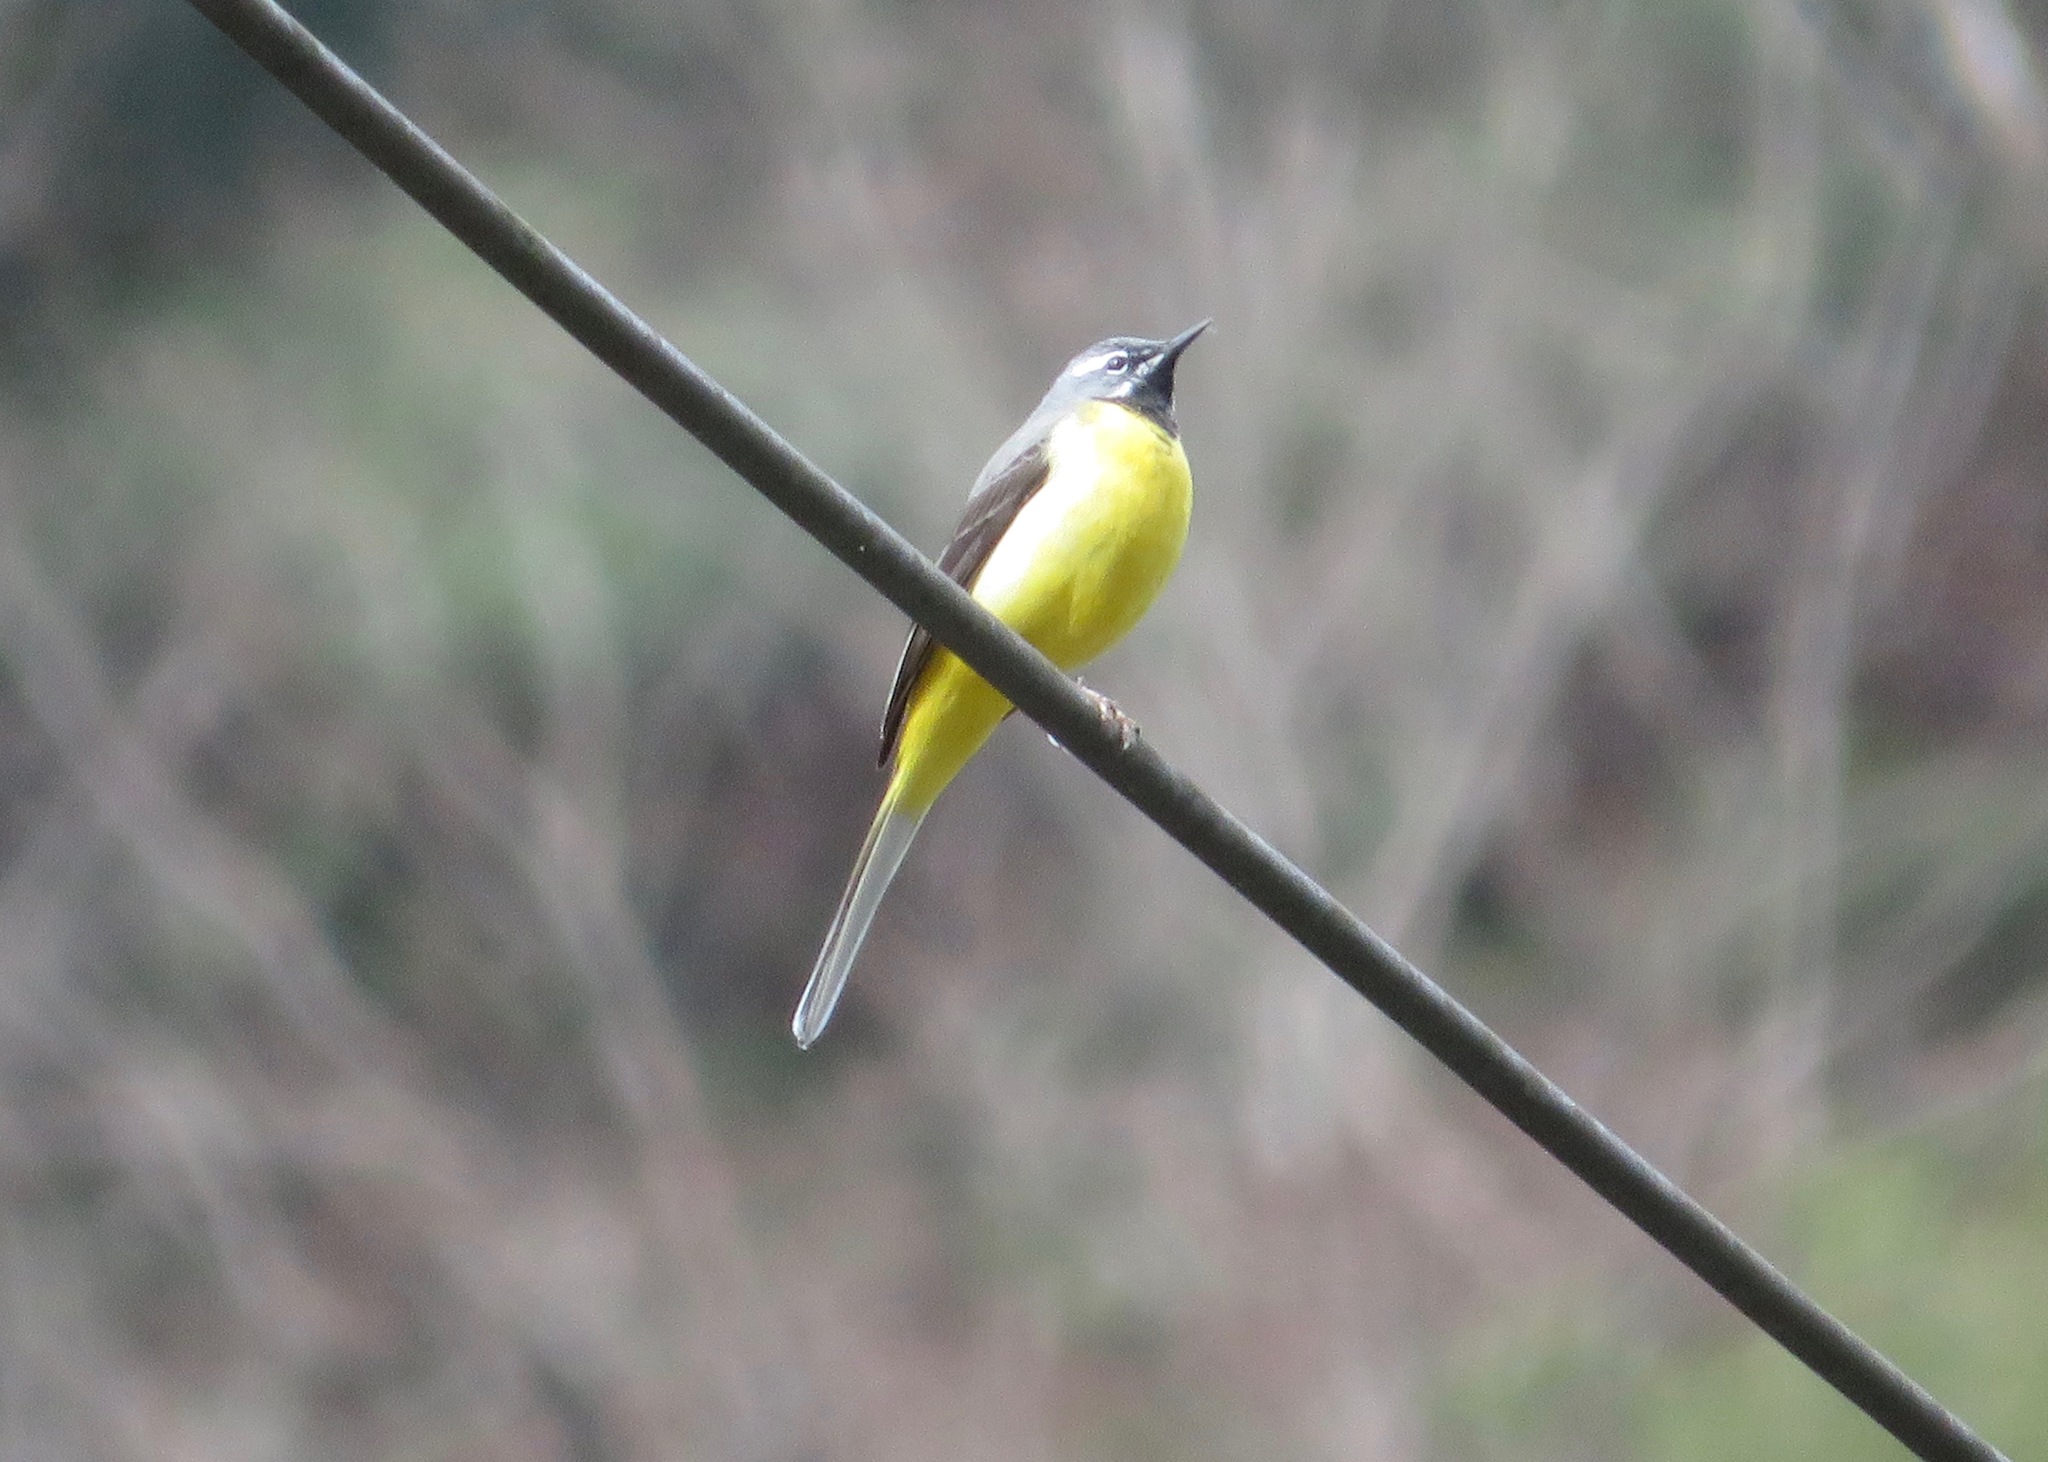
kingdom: Animalia
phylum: Chordata
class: Aves
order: Passeriformes
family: Motacillidae
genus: Motacilla
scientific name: Motacilla cinerea
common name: Grey wagtail
